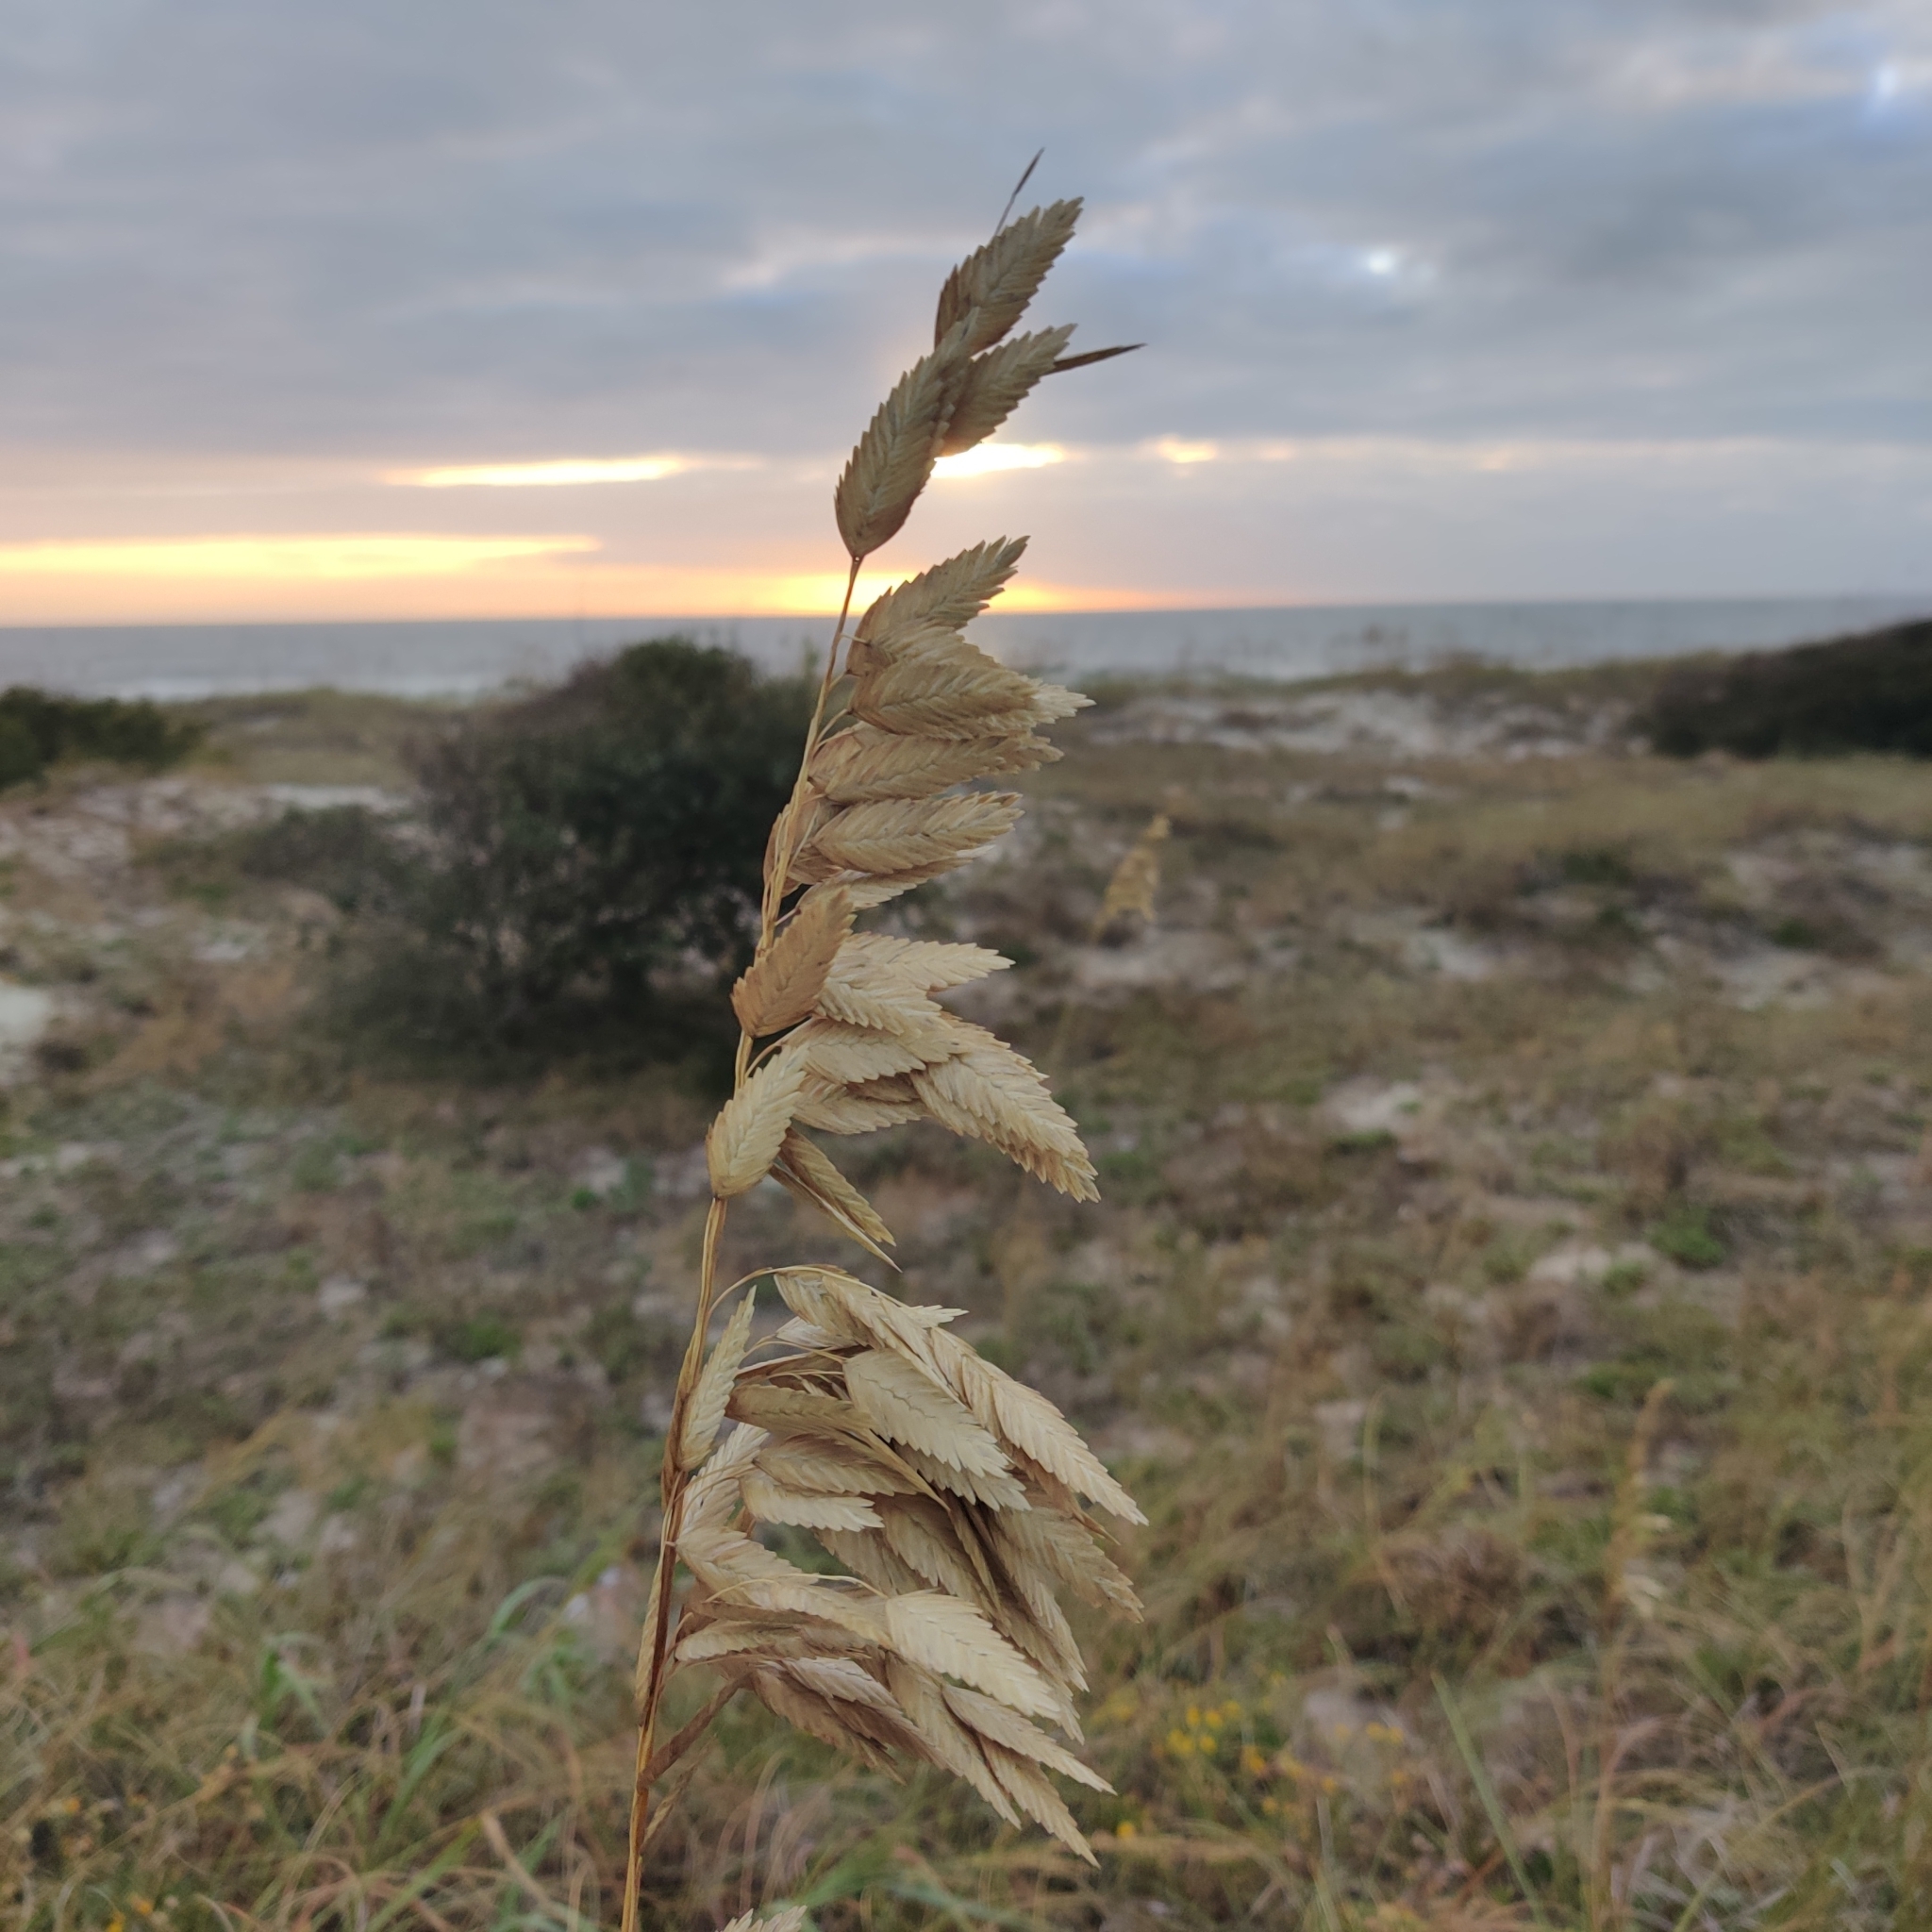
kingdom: Plantae
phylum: Tracheophyta
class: Liliopsida
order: Poales
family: Poaceae
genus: Uniola
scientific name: Uniola paniculata
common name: Seaside-oats
